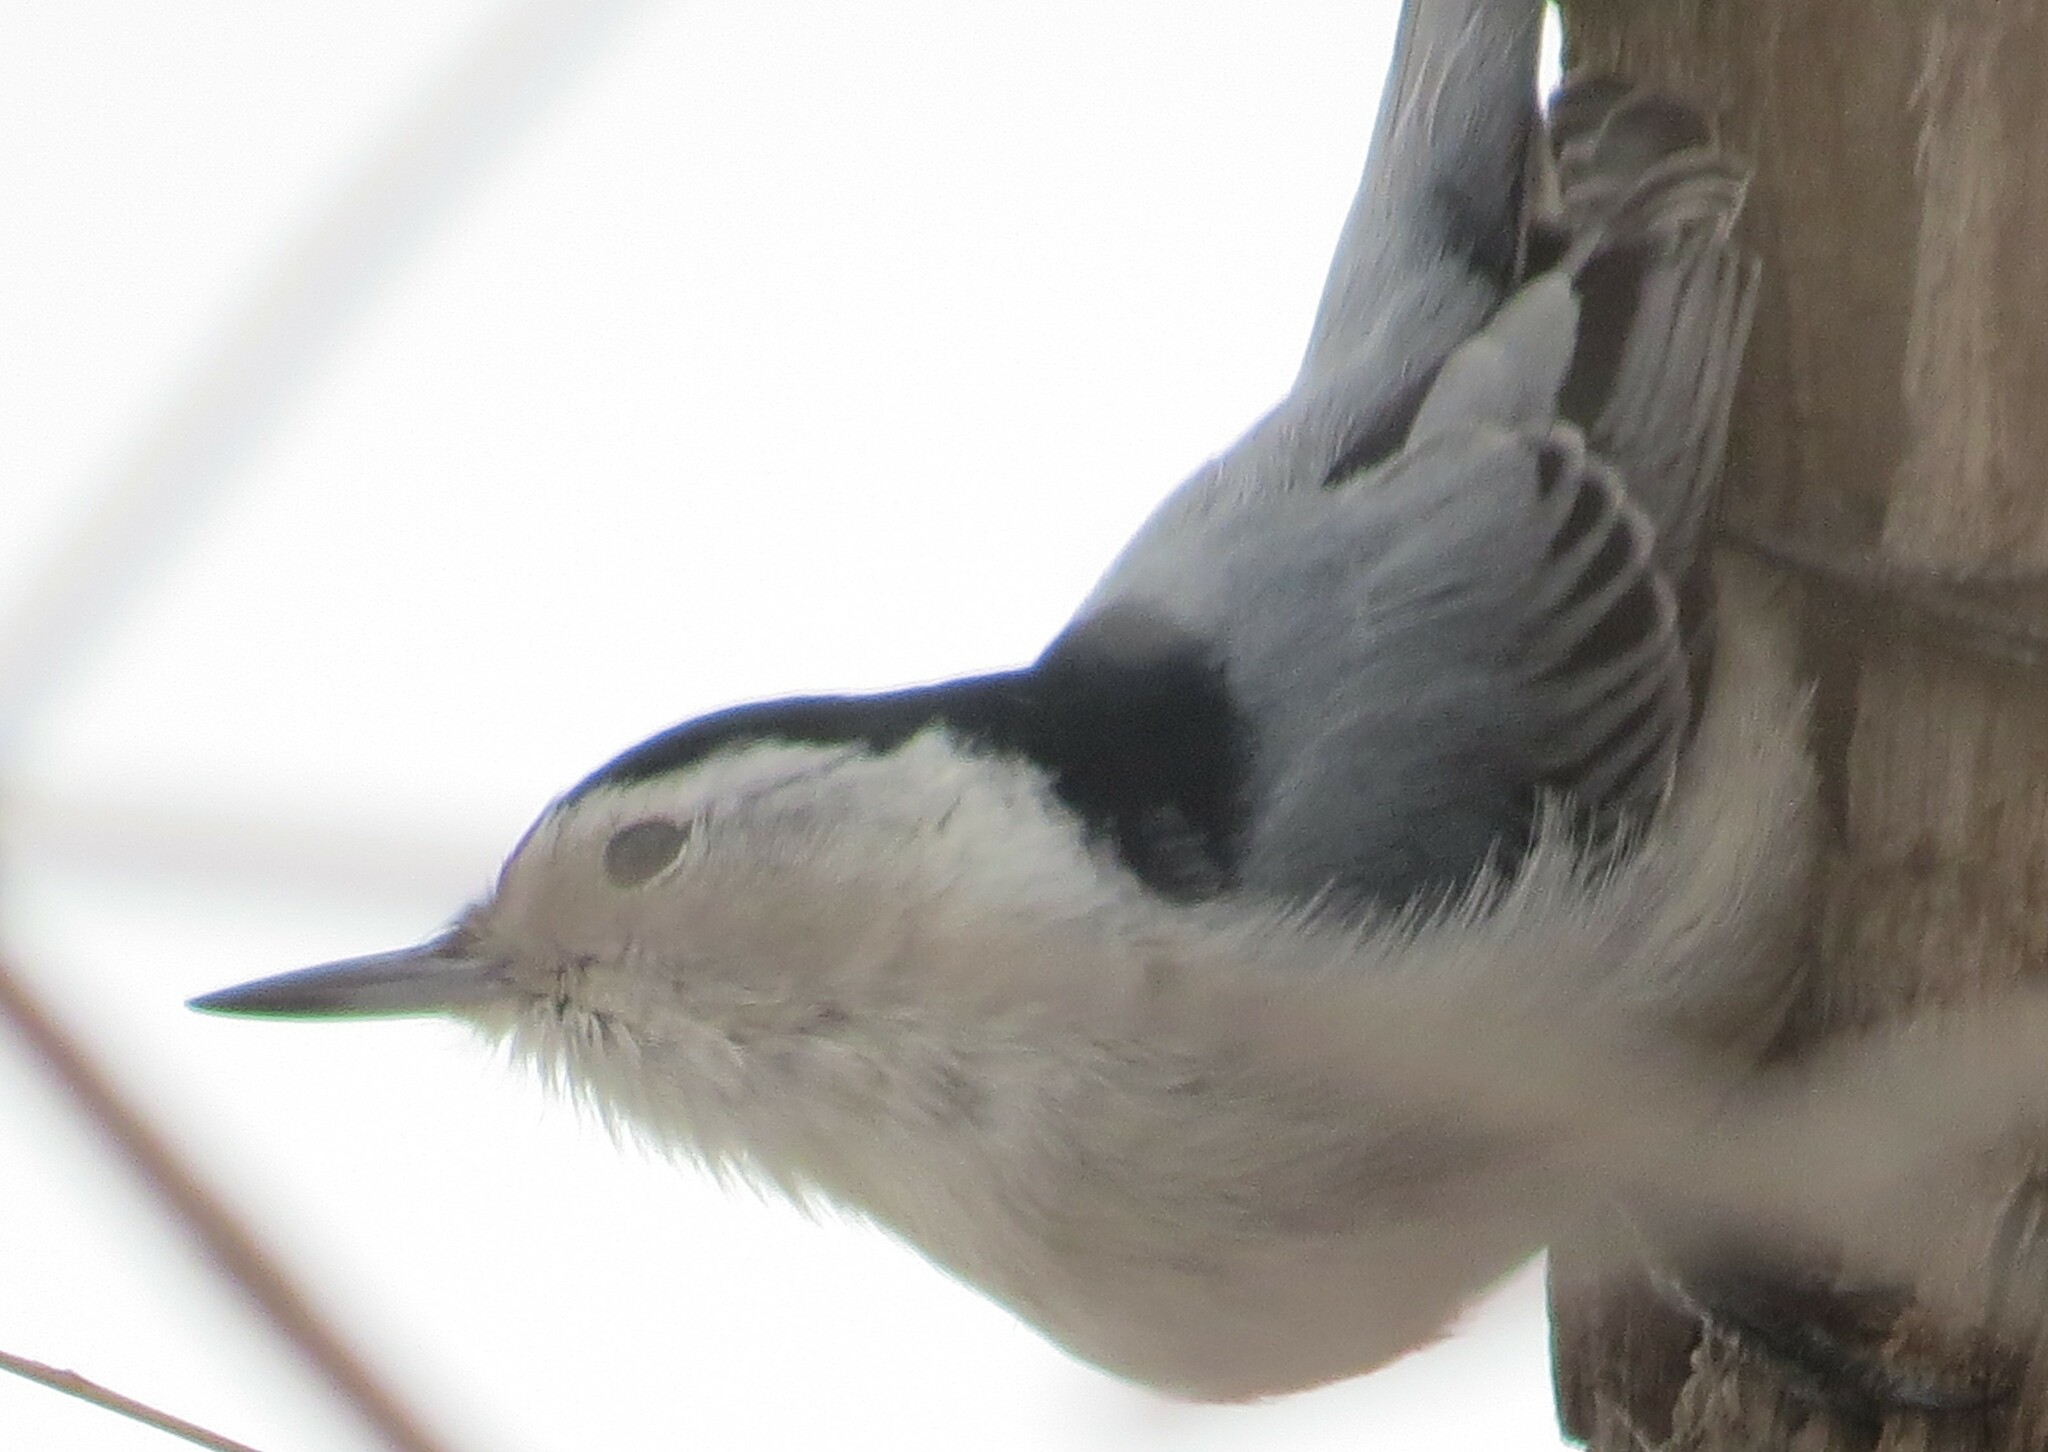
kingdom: Animalia
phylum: Chordata
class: Aves
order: Passeriformes
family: Sittidae
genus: Sitta
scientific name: Sitta carolinensis
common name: White-breasted nuthatch
